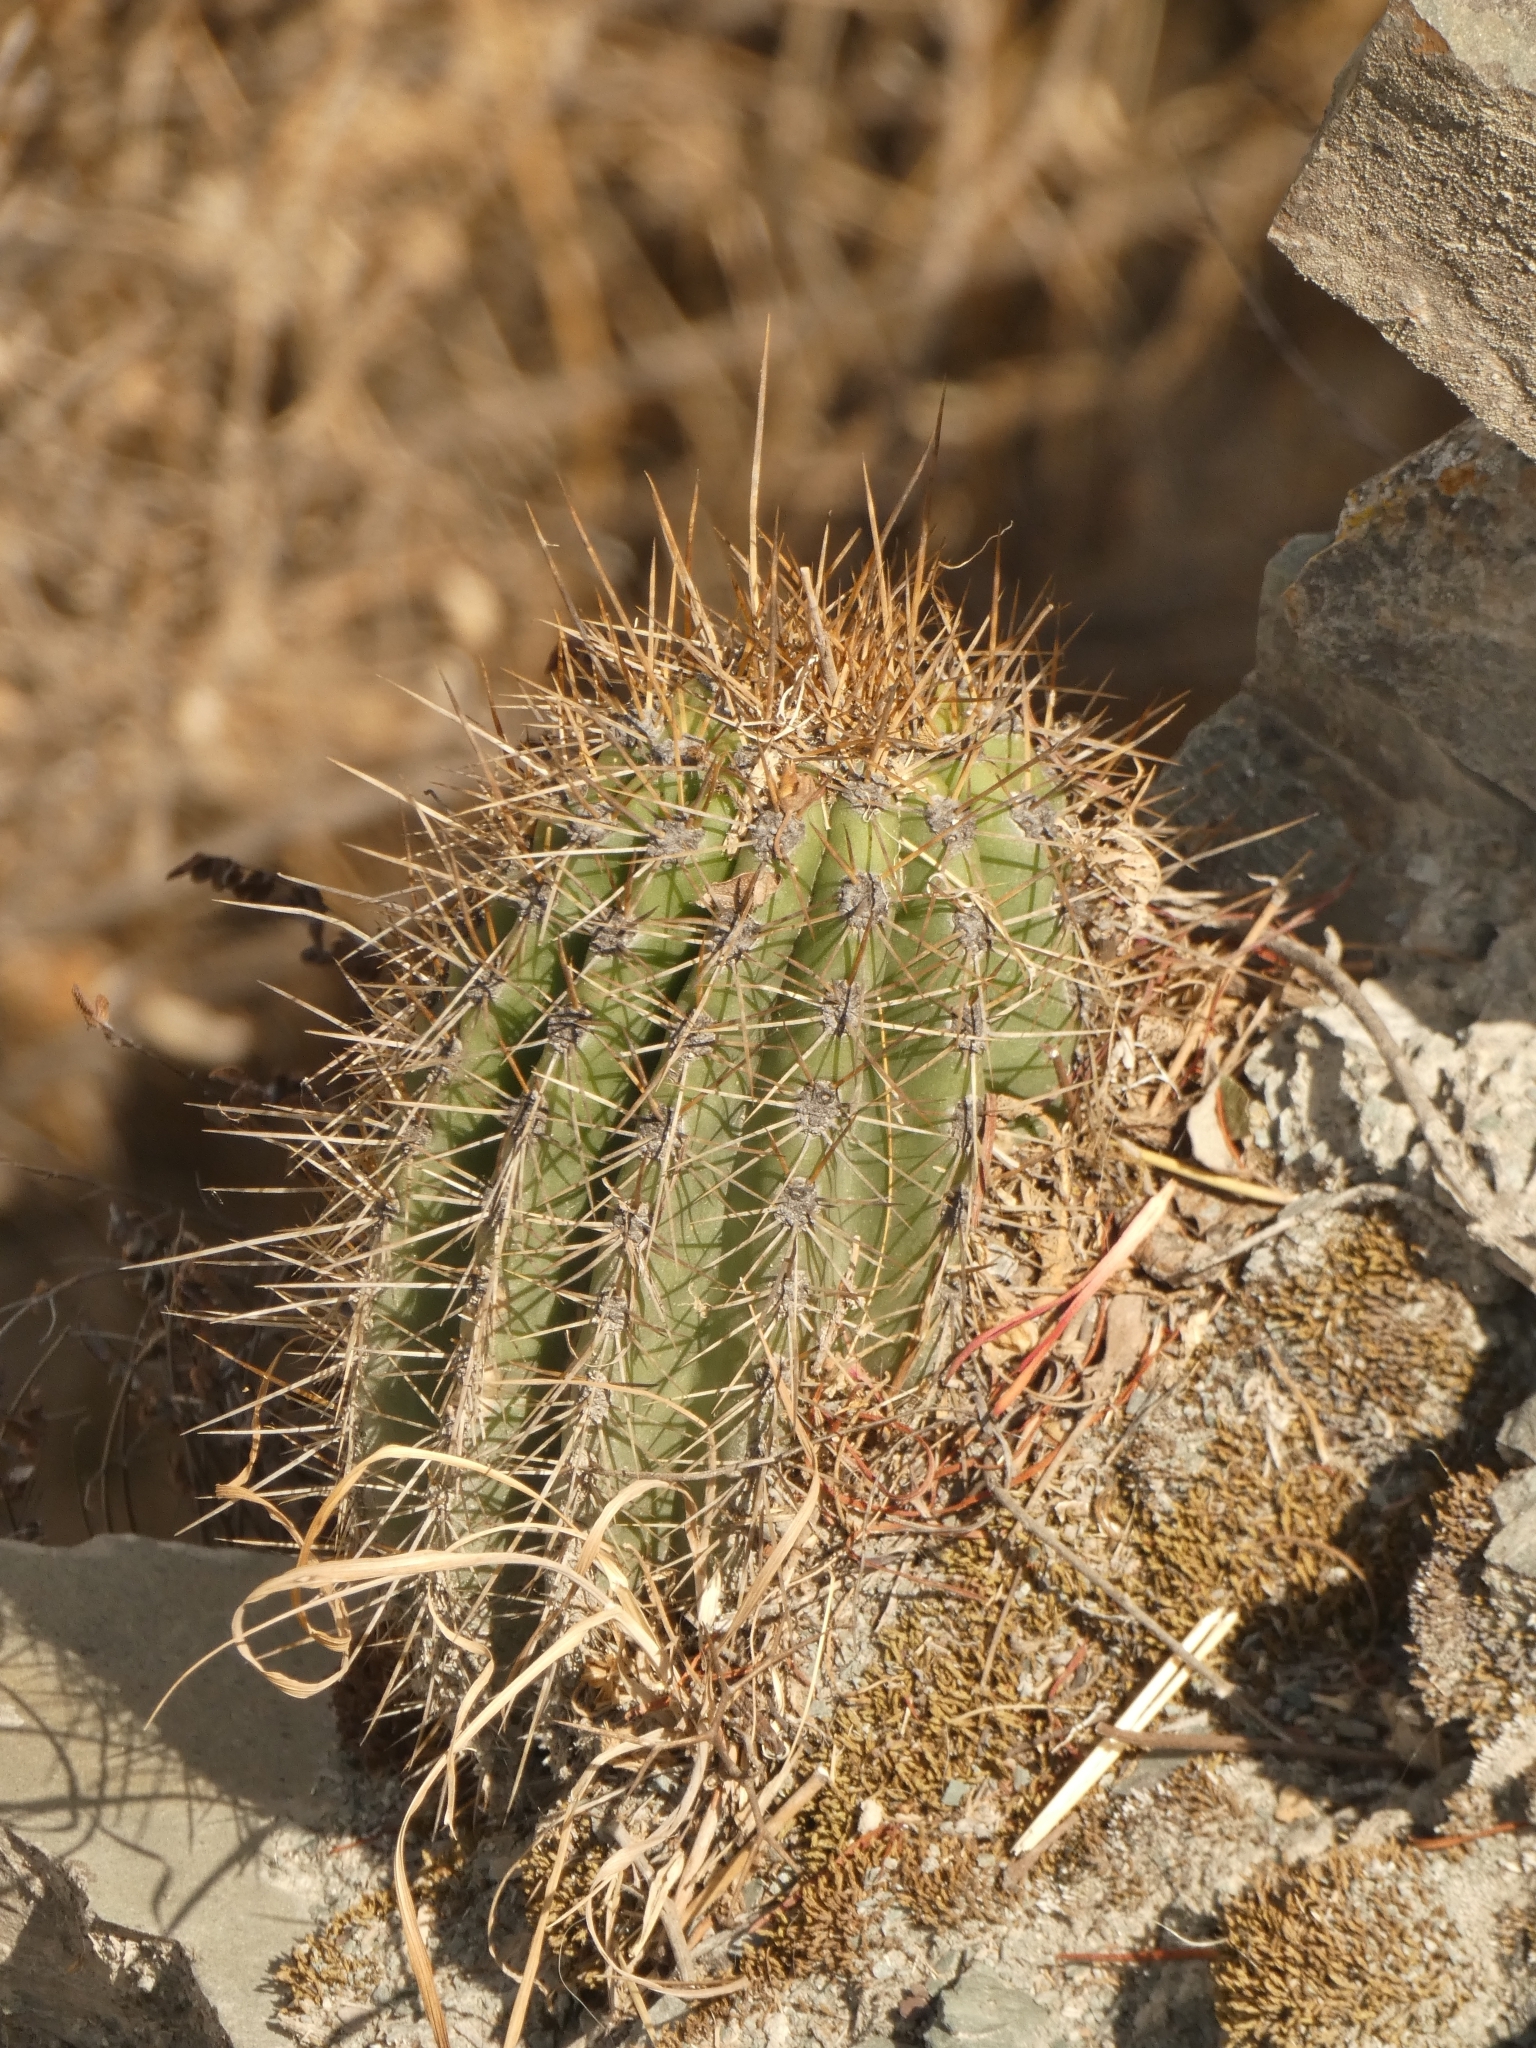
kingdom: Plantae
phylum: Tracheophyta
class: Magnoliopsida
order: Caryophyllales
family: Cactaceae
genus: Soehrensia
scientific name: Soehrensia schickendantzii
